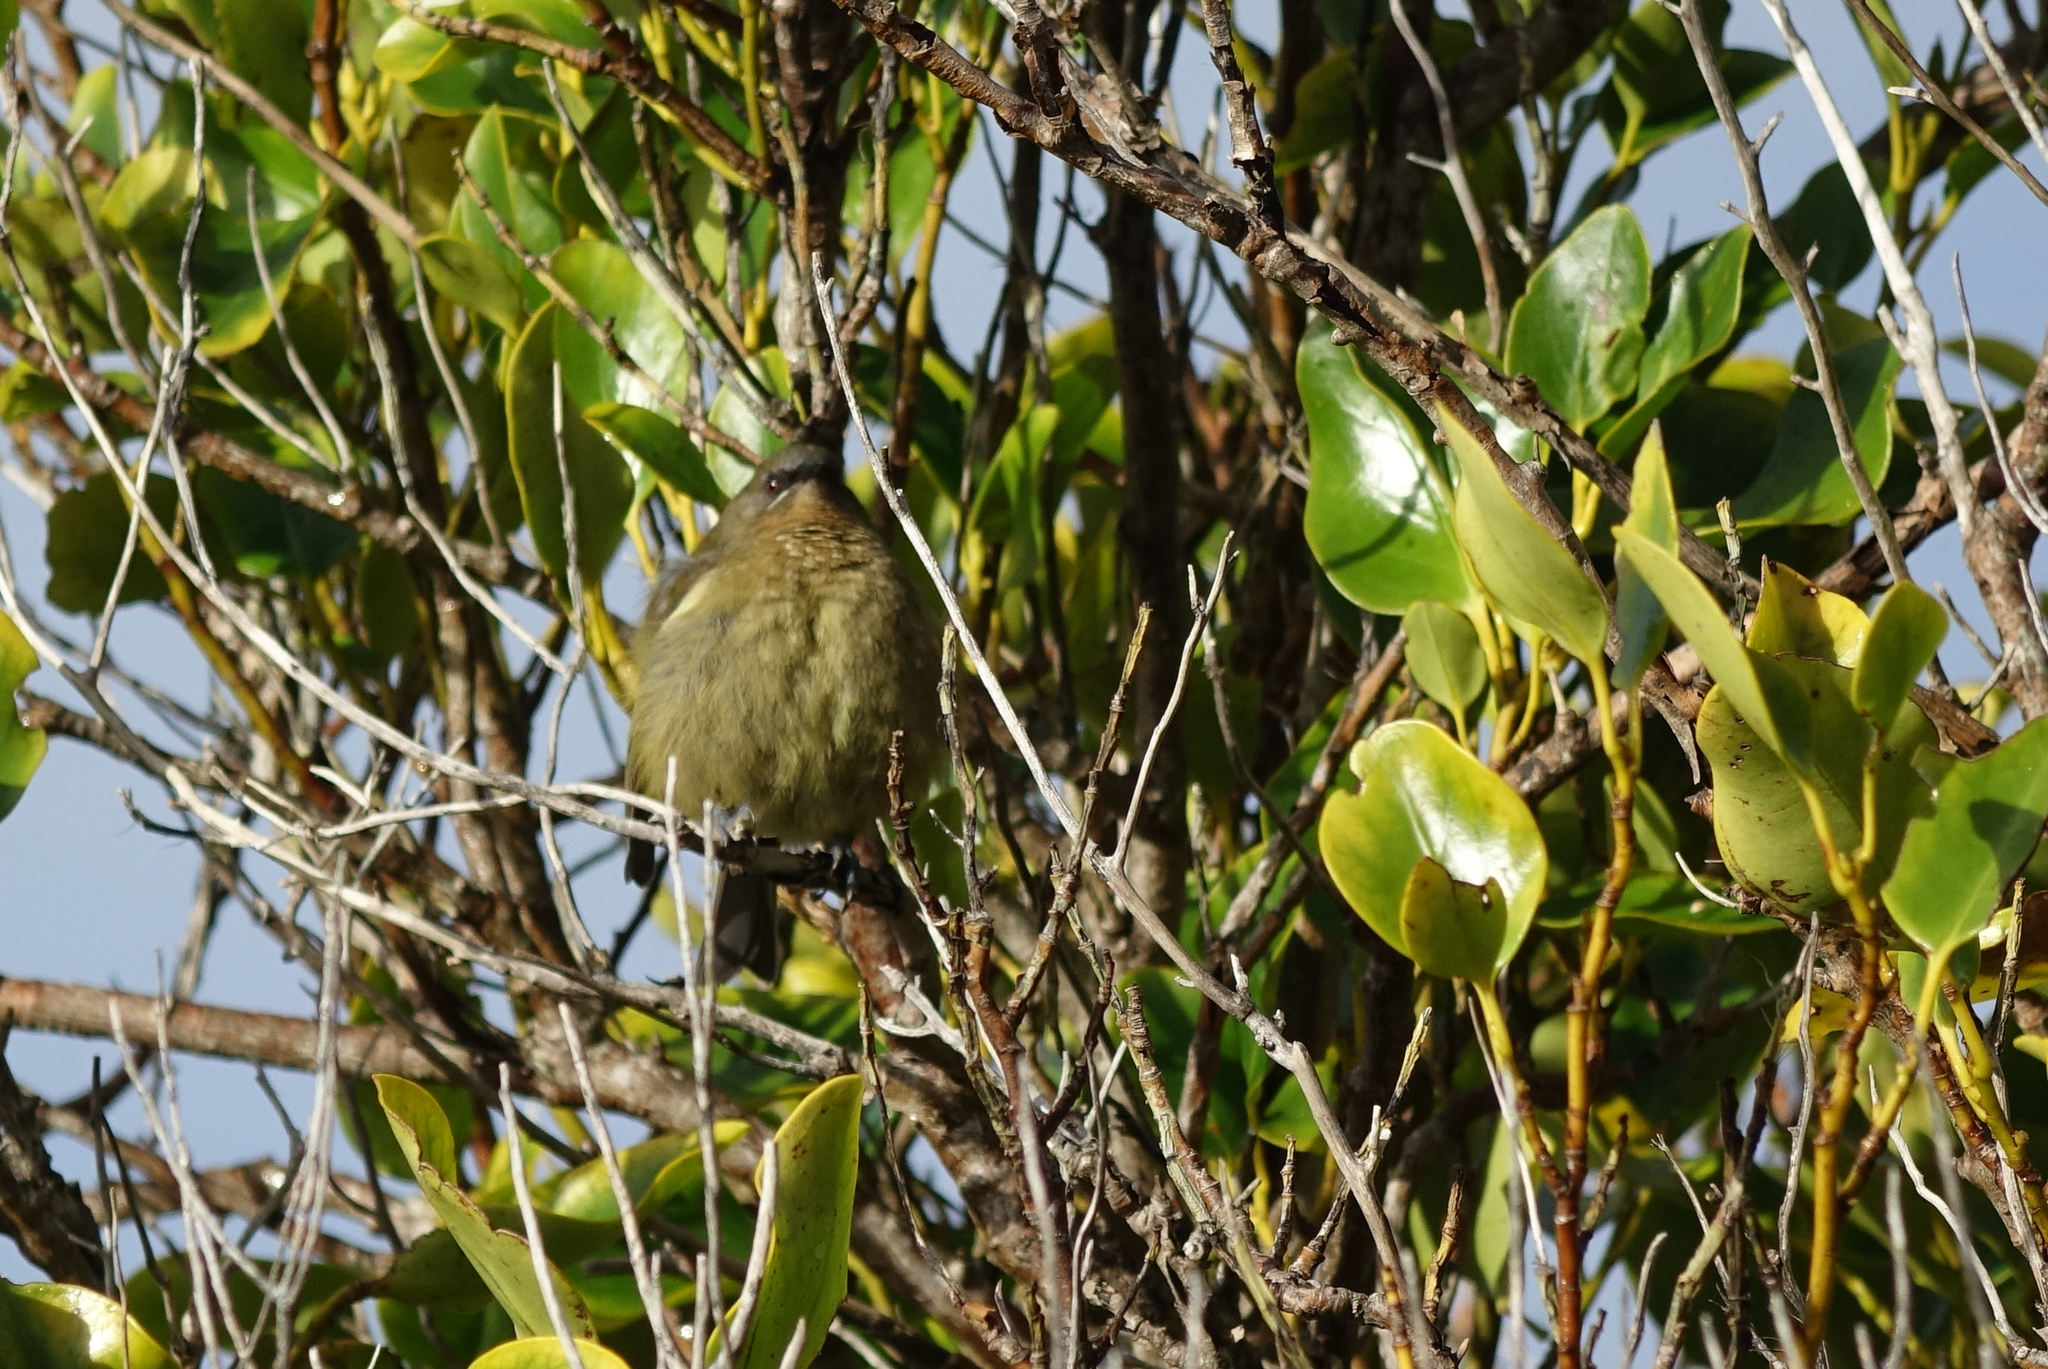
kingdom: Animalia
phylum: Chordata
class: Aves
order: Passeriformes
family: Meliphagidae
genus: Anthornis
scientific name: Anthornis melanura
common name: New zealand bellbird
